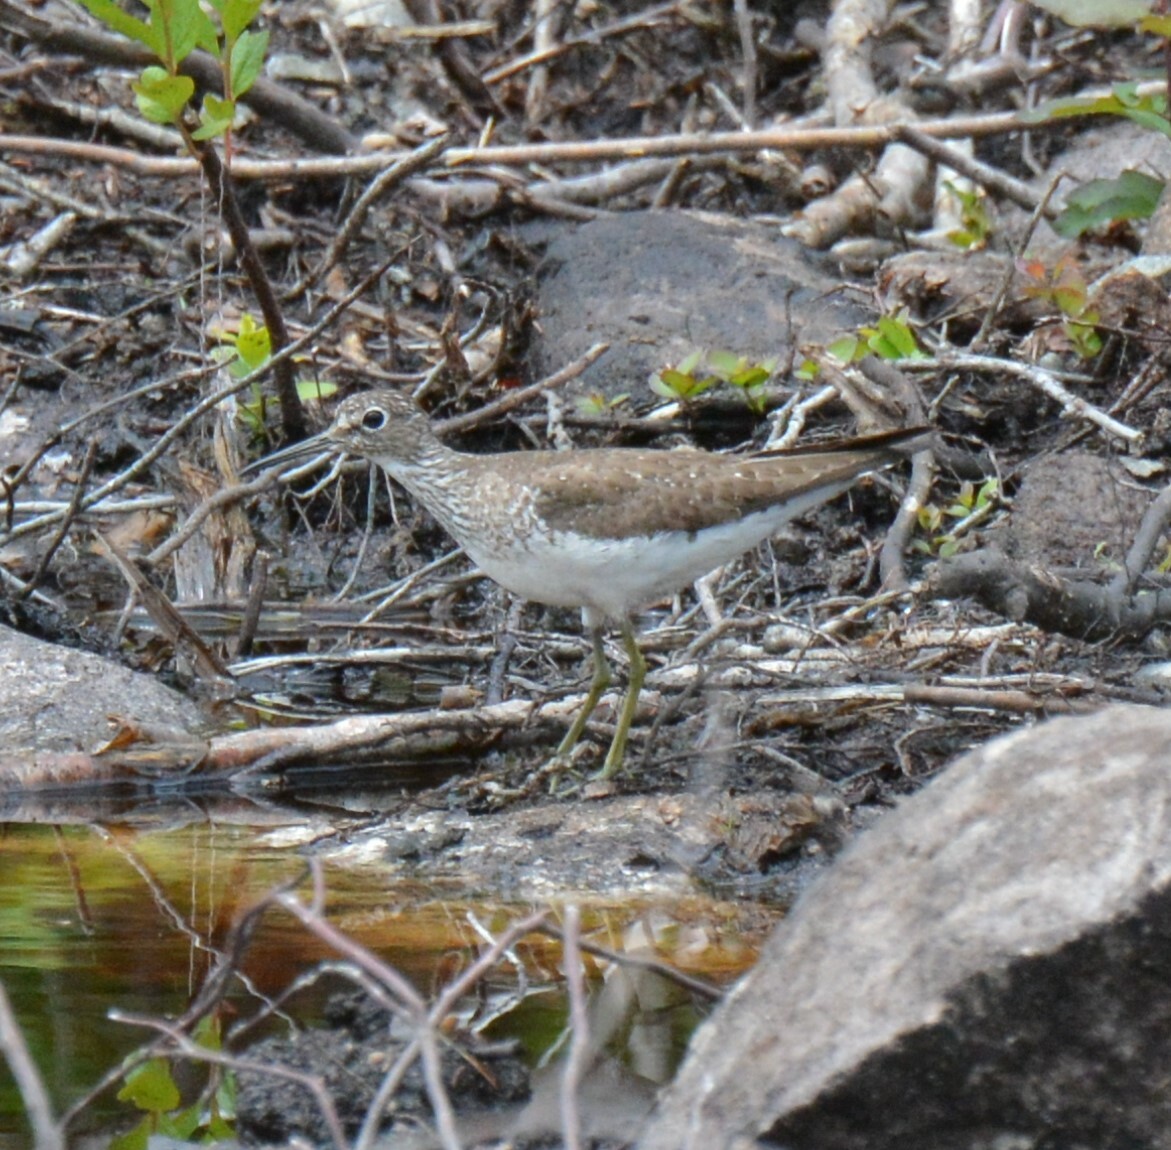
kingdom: Animalia
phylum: Chordata
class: Aves
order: Charadriiformes
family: Scolopacidae
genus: Tringa
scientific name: Tringa solitaria
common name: Solitary sandpiper
